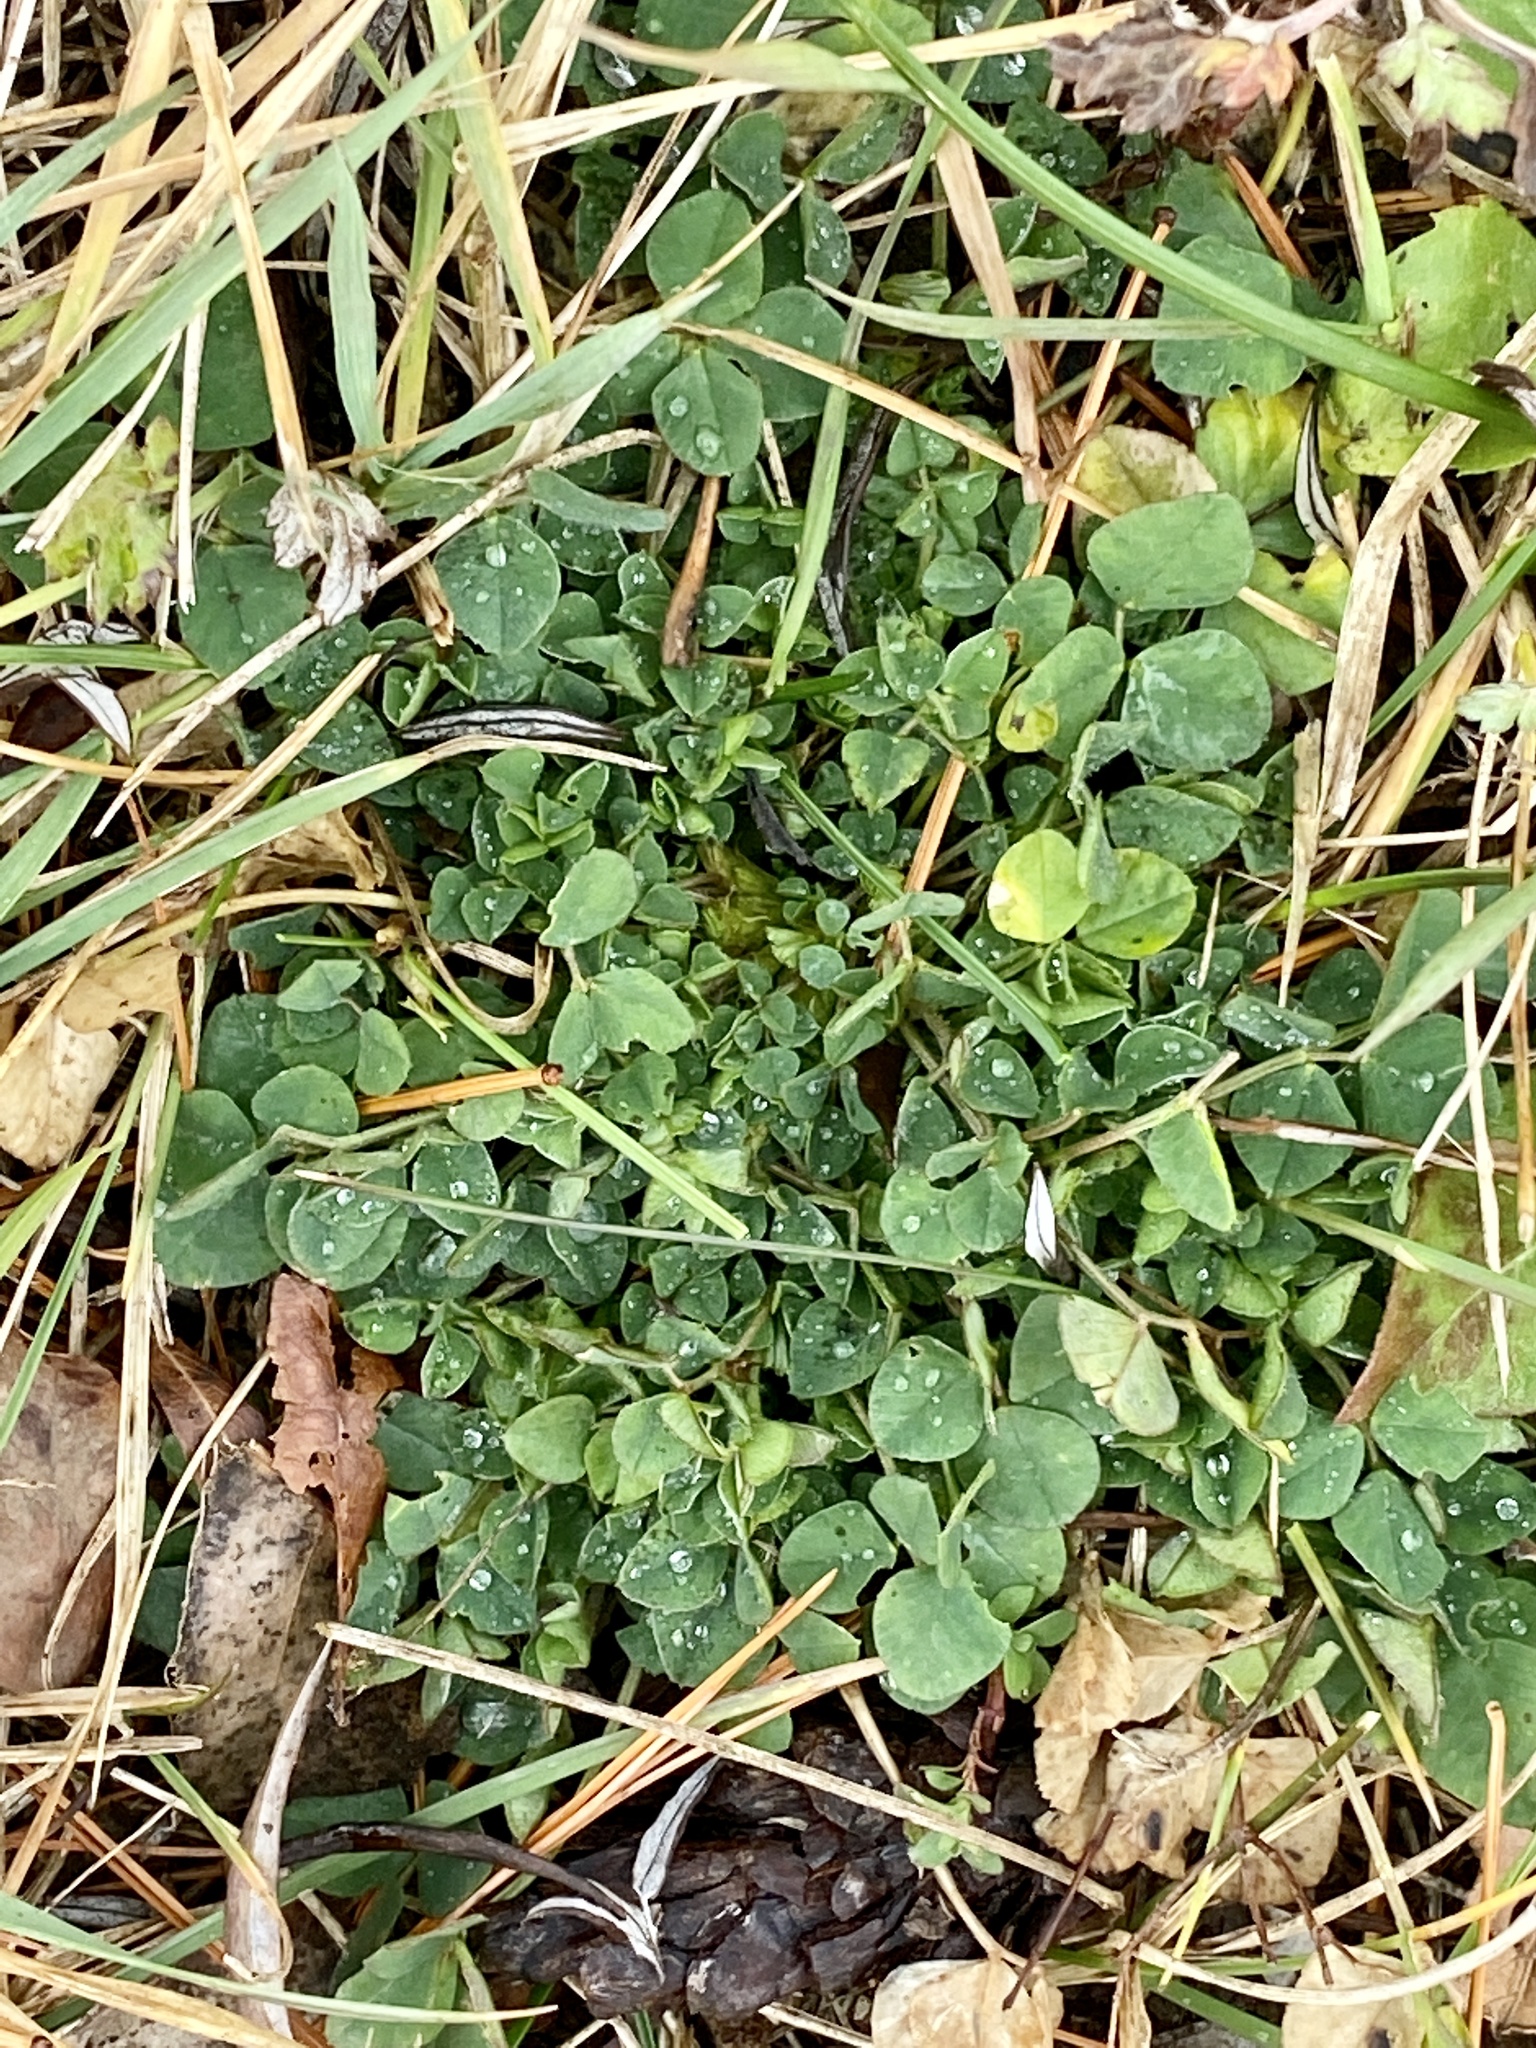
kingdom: Plantae
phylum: Tracheophyta
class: Magnoliopsida
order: Fabales
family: Fabaceae
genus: Medicago
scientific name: Medicago lupulina
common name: Black medick
